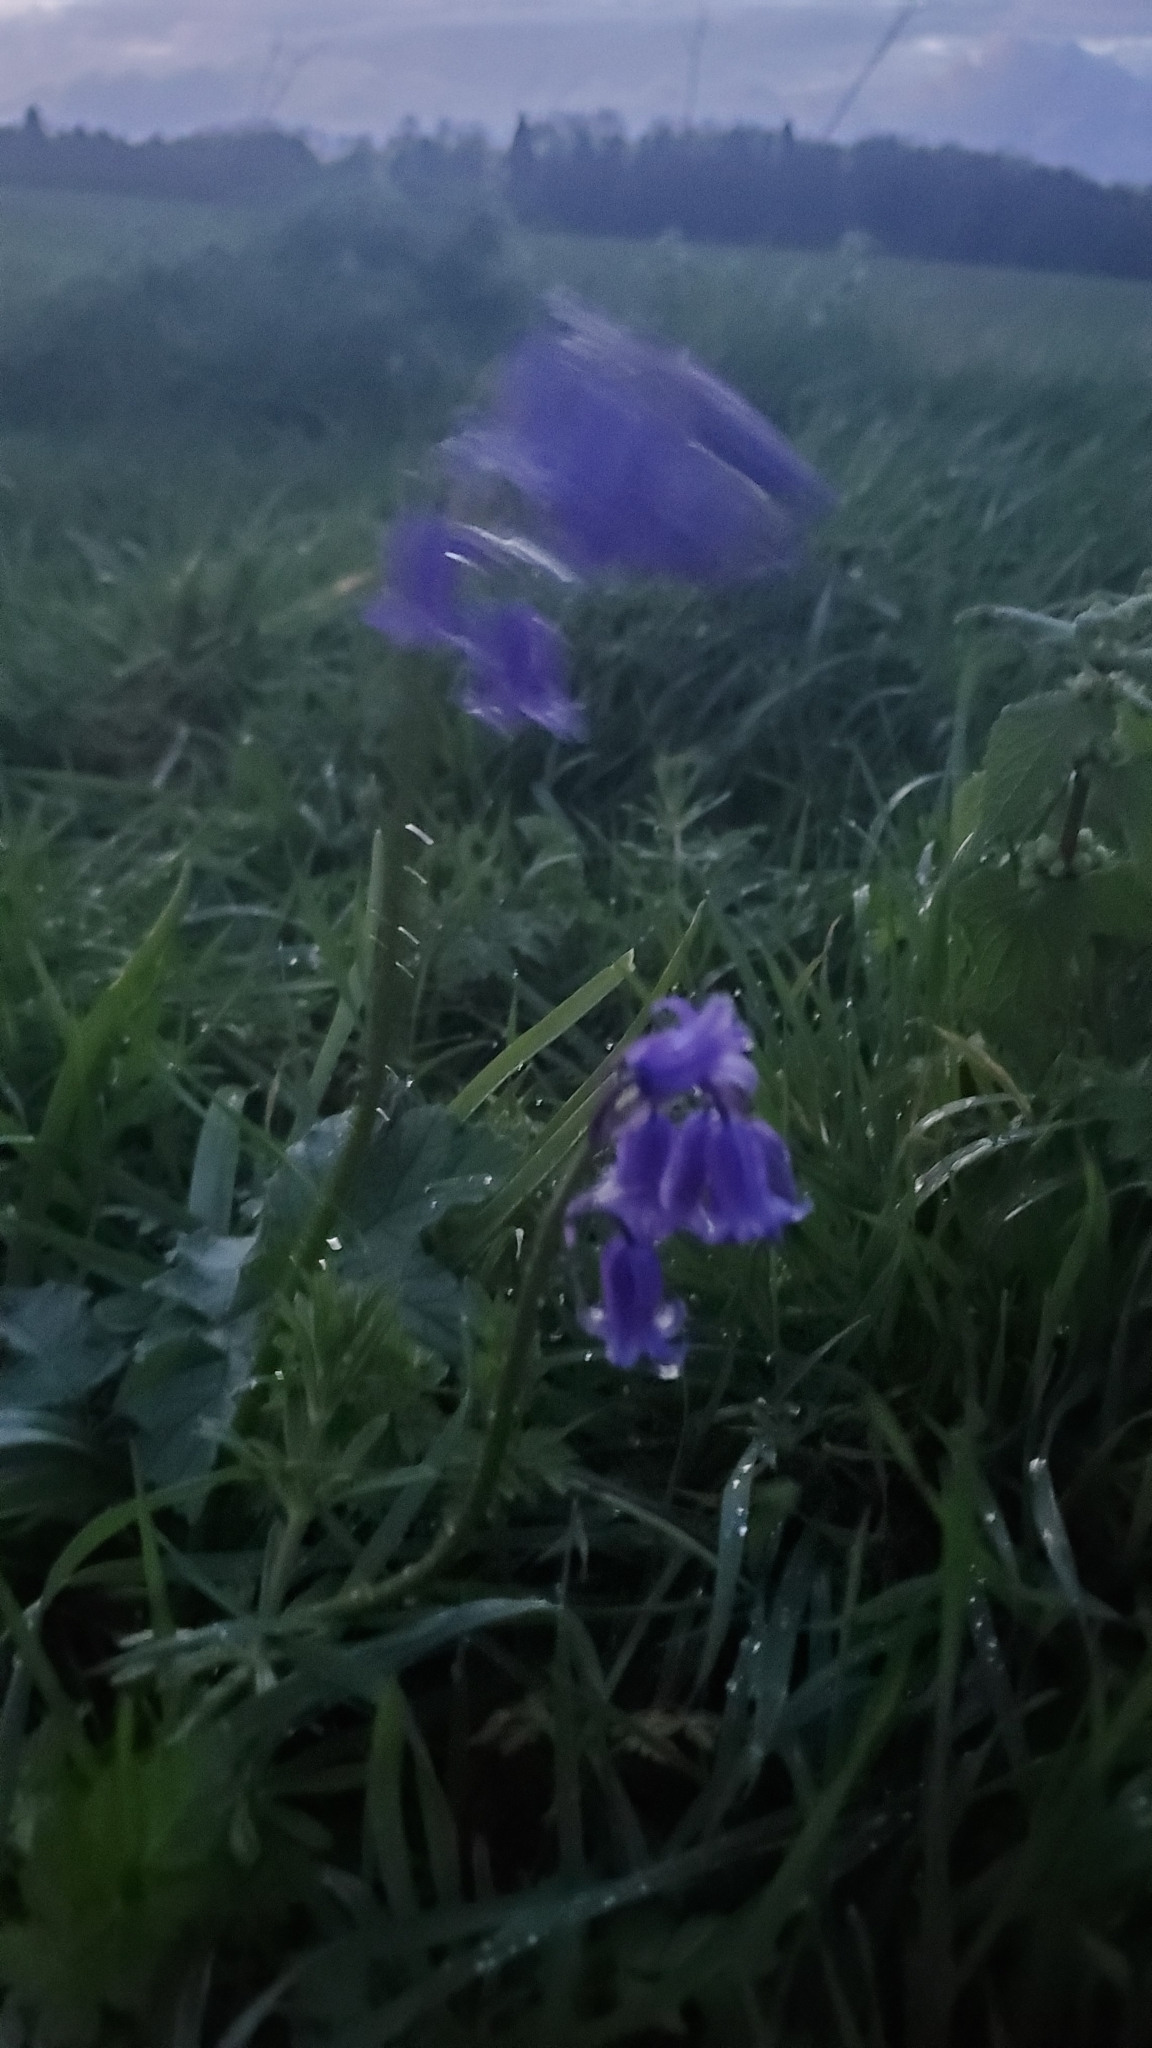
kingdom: Plantae
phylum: Tracheophyta
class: Liliopsida
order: Asparagales
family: Asparagaceae
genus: Hyacinthoides
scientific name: Hyacinthoides non-scripta
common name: Bluebell
